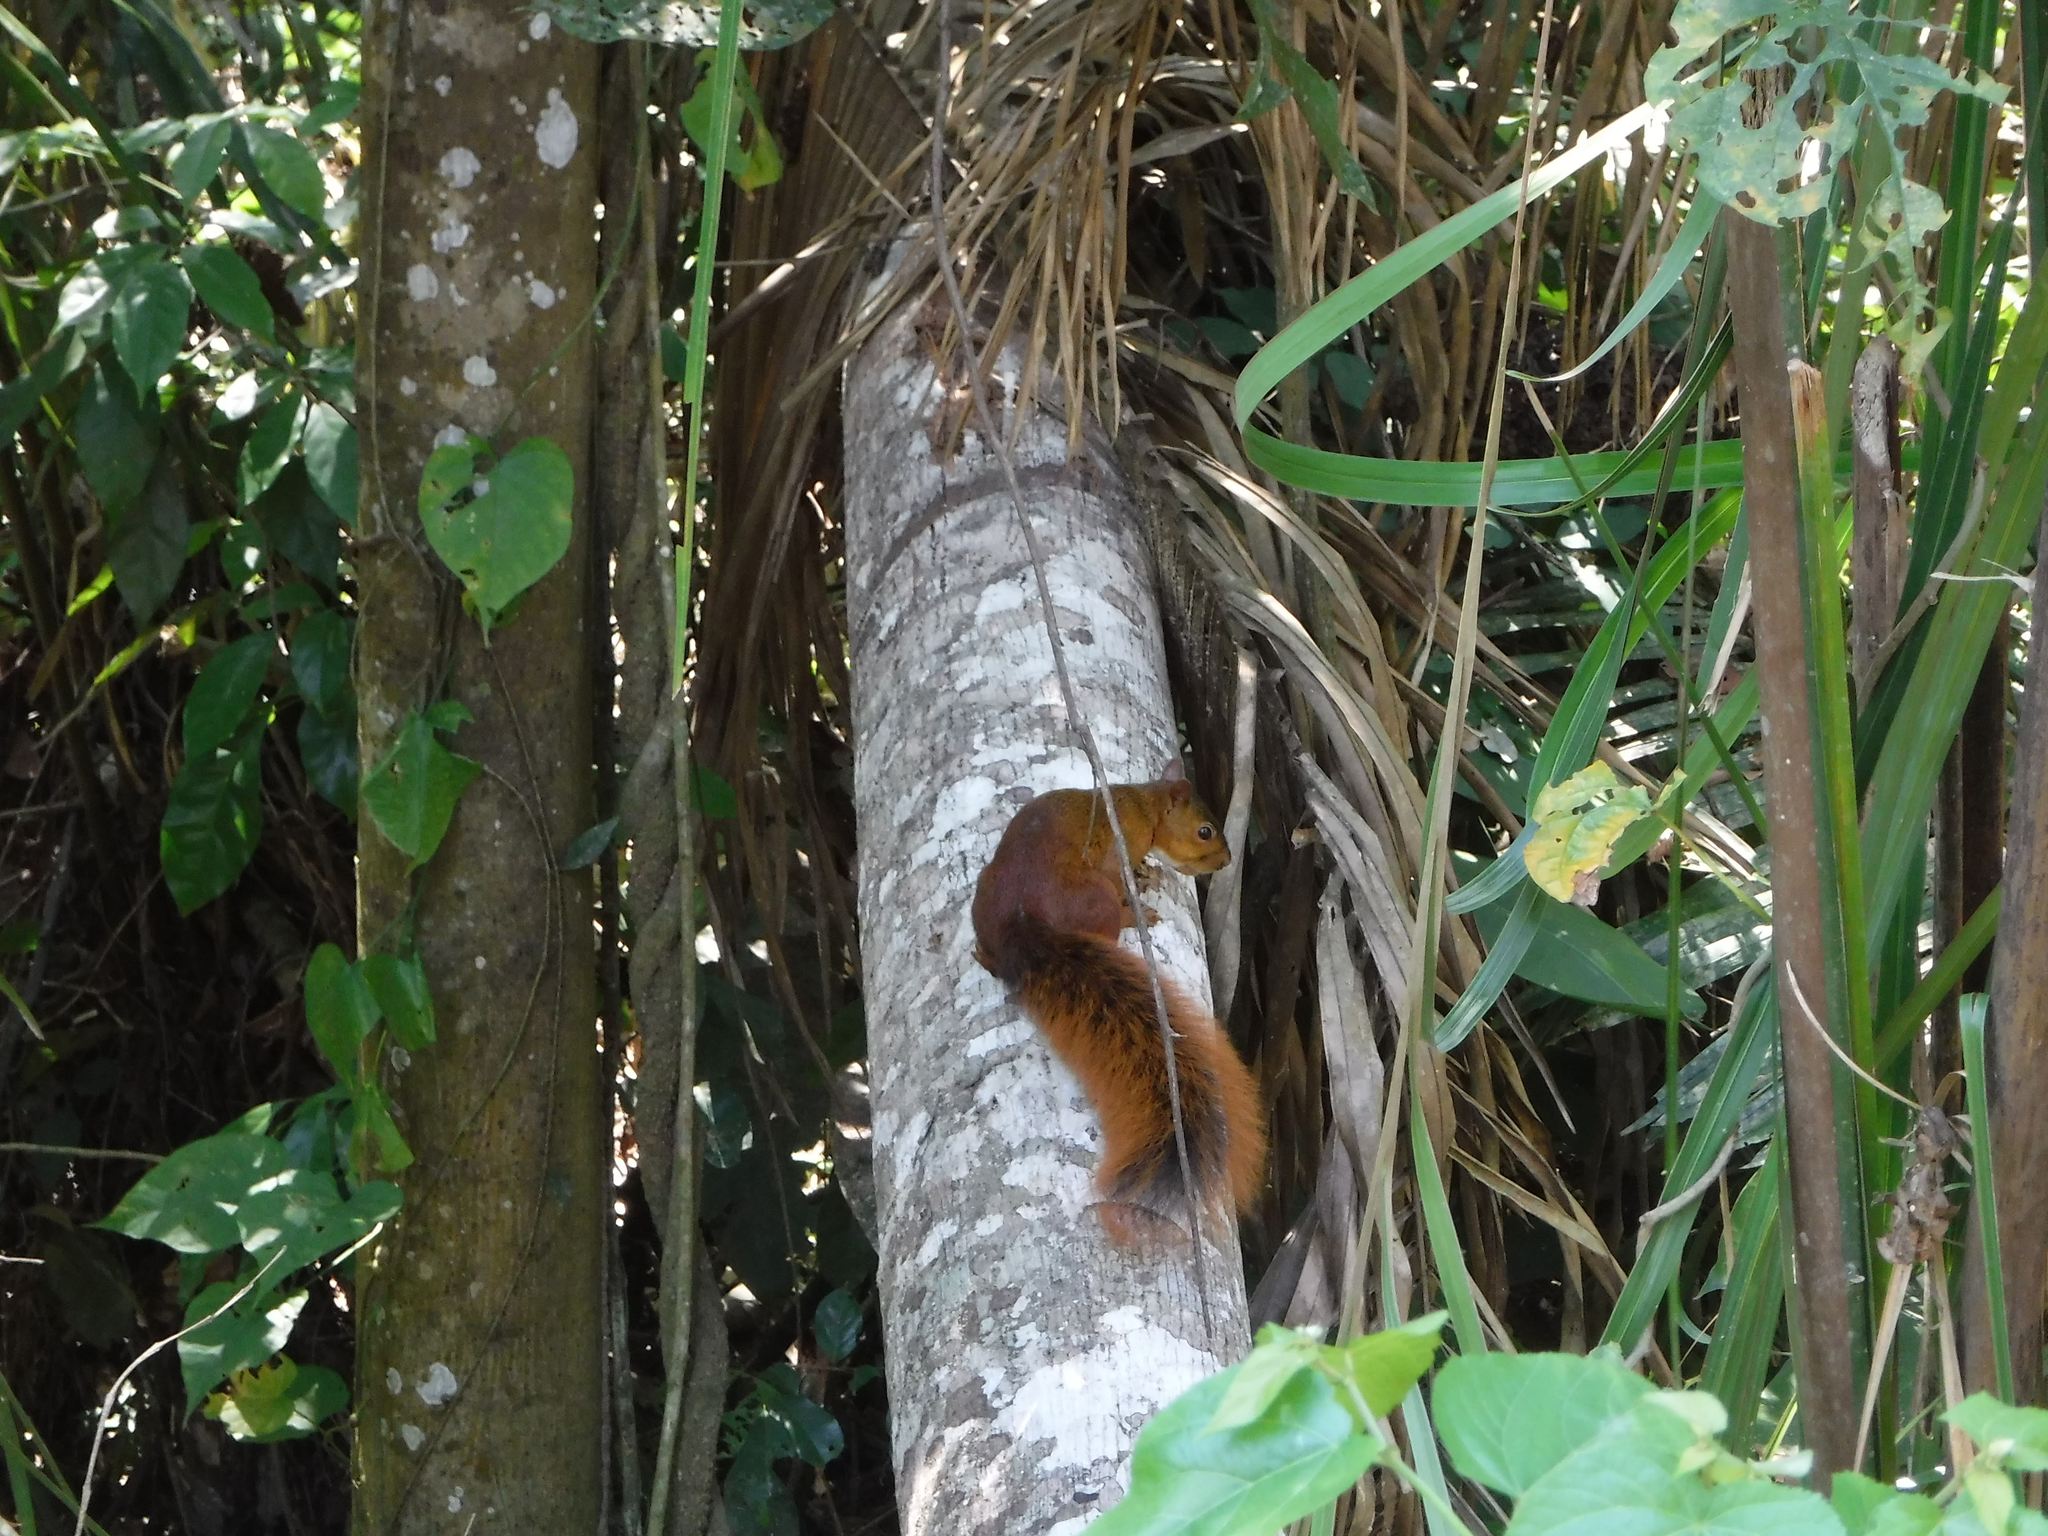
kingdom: Animalia
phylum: Chordata
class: Mammalia
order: Rodentia
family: Sciuridae
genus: Sciurus
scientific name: Sciurus spadiceus
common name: Southern amazon red squirrel
